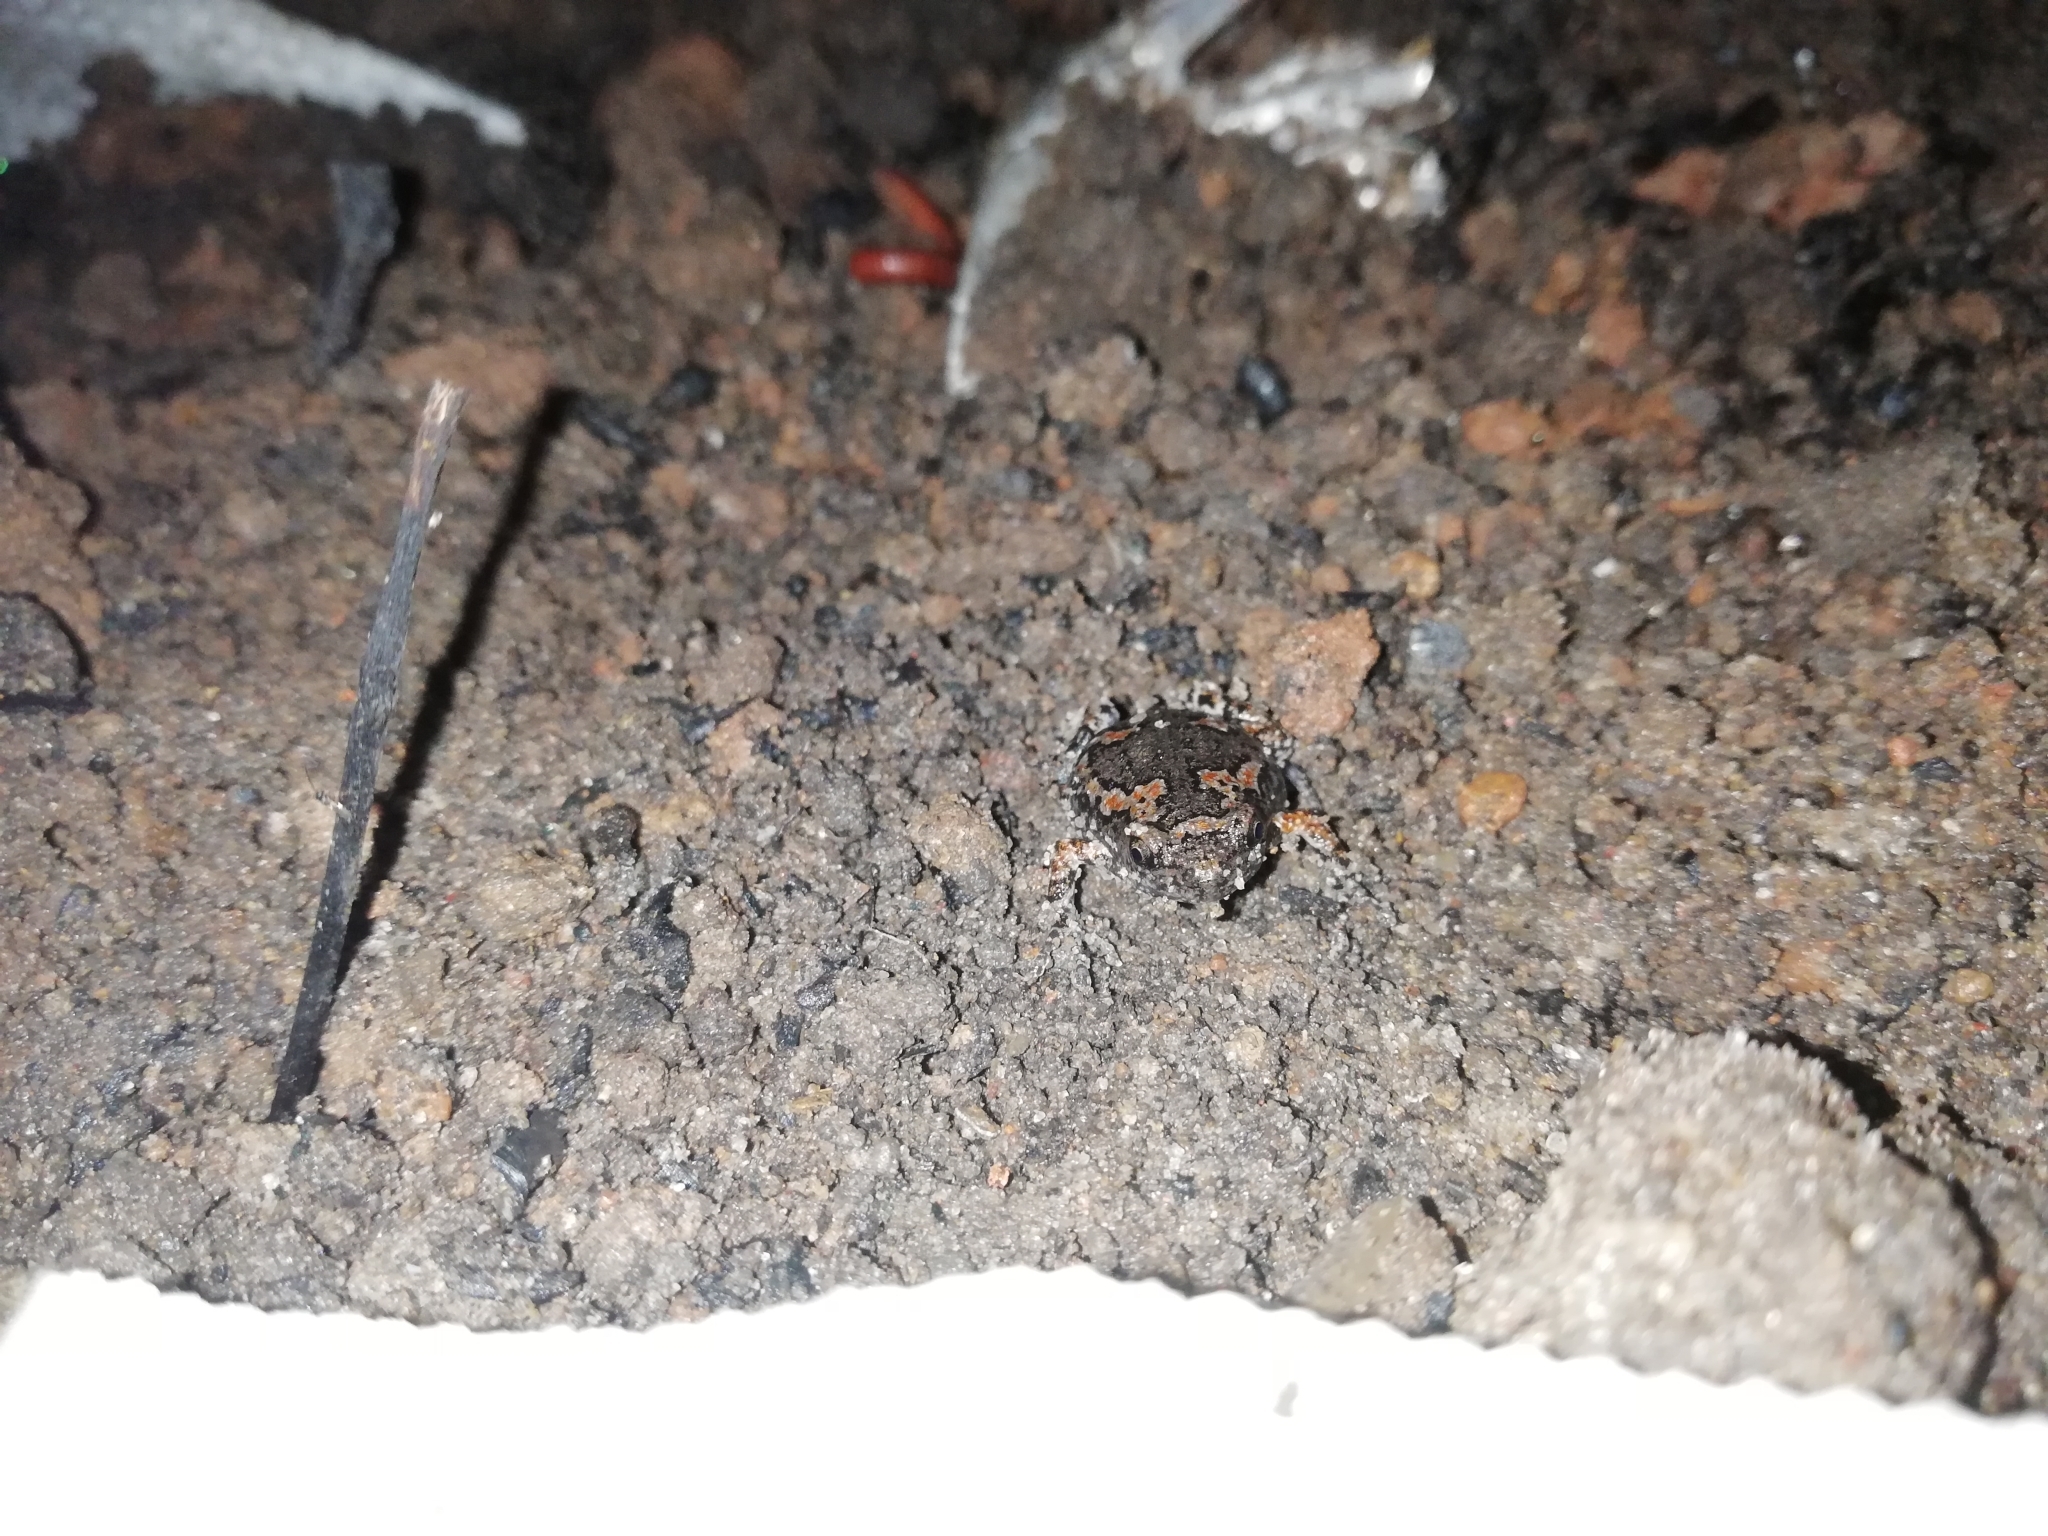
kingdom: Animalia
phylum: Chordata
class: Amphibia
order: Anura
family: Microhylidae
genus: Uperodon
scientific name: Uperodon taprobanicus
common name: Ceylon kaloula
